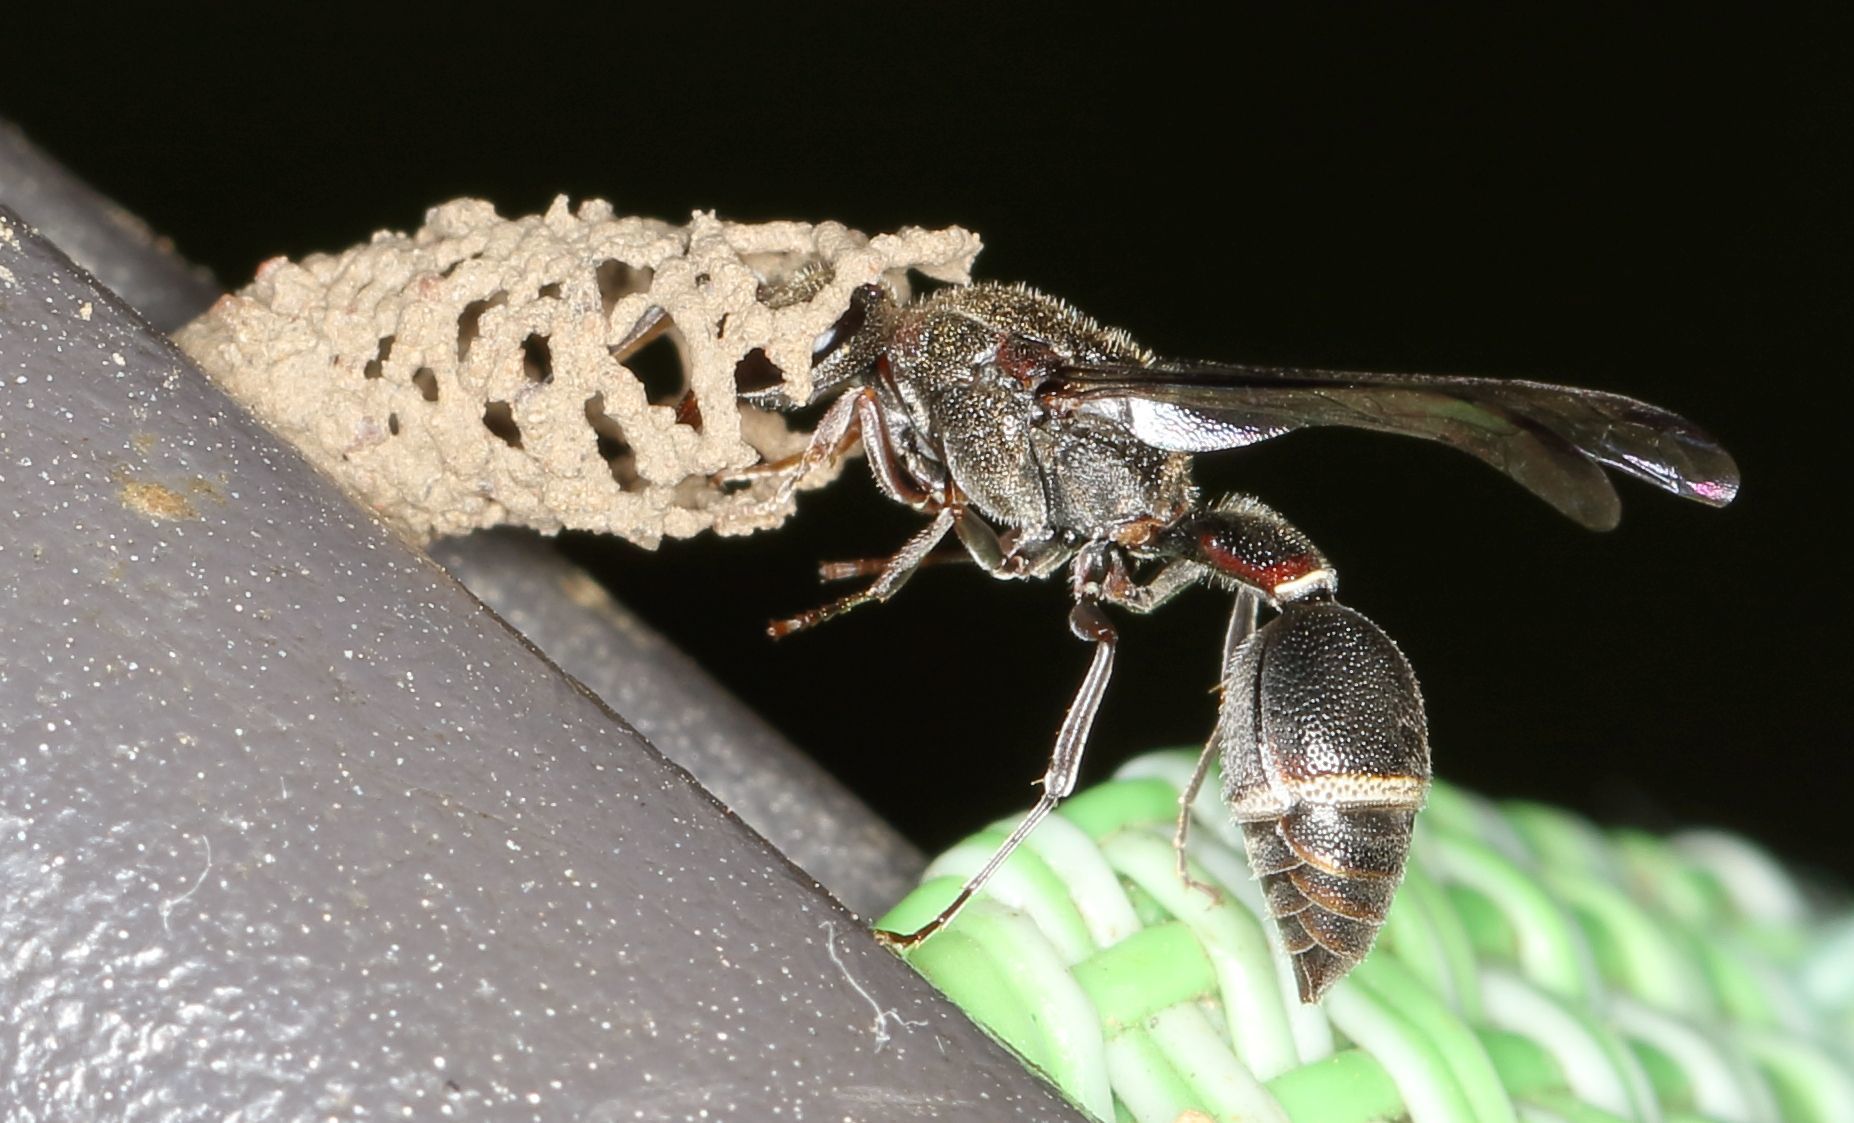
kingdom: Animalia
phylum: Arthropoda
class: Insecta
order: Hymenoptera
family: Eumenidae
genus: Pseudonortonia
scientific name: Pseudonortonia
